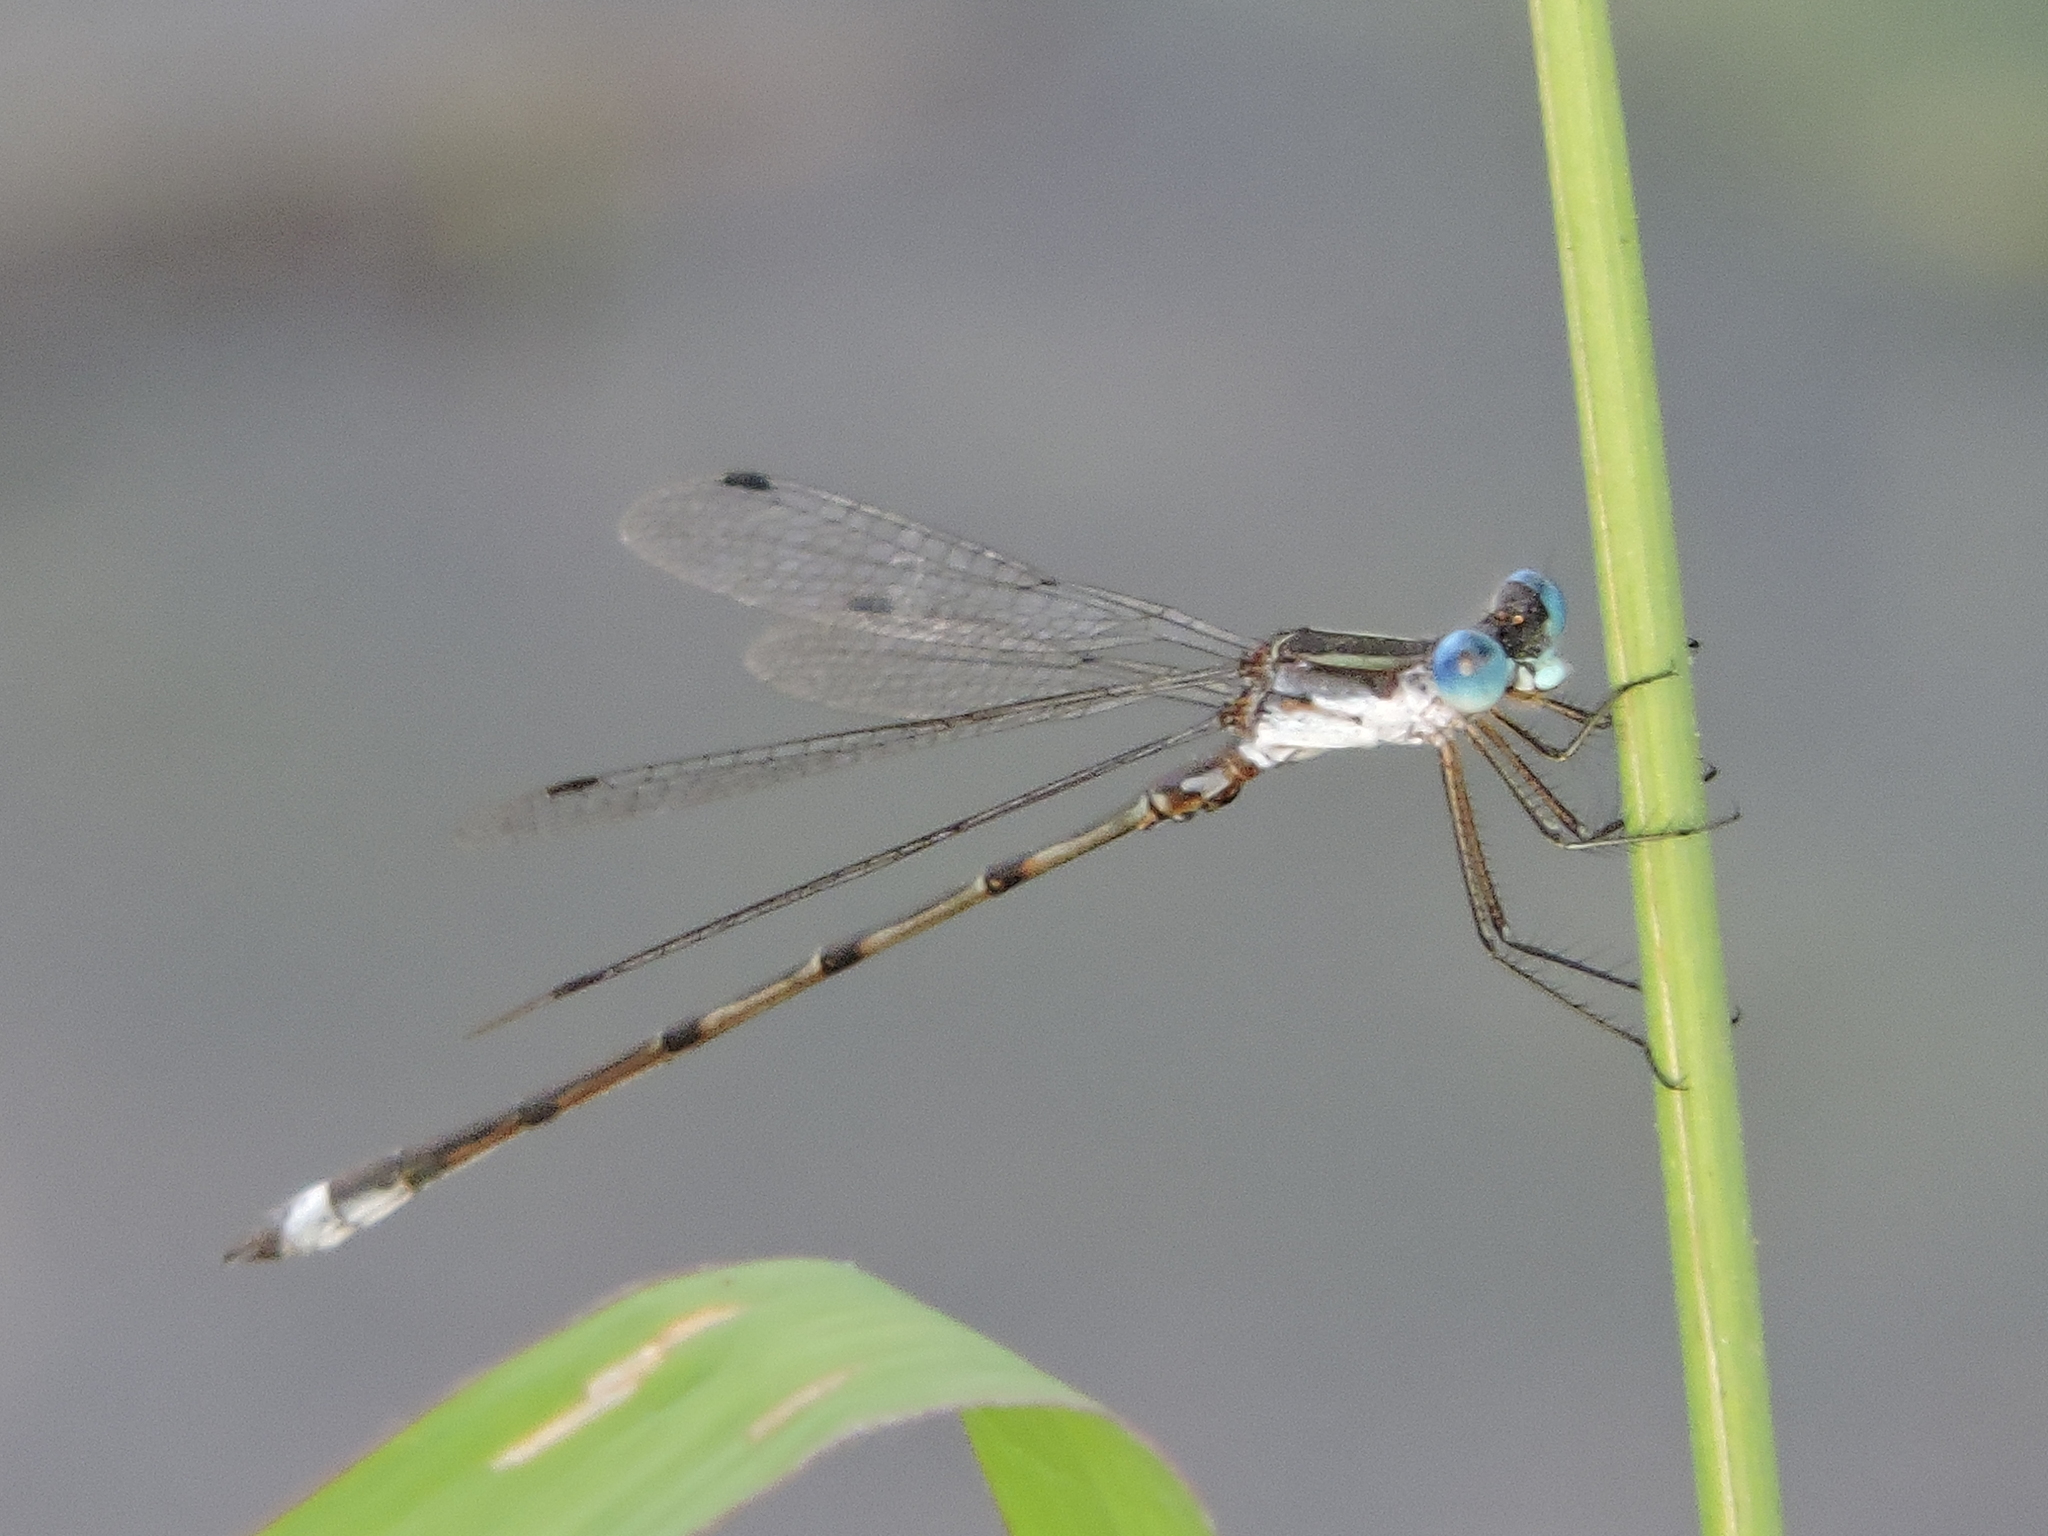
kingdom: Animalia
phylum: Arthropoda
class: Insecta
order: Odonata
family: Lestidae
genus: Lestes
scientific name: Lestes australis
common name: Southern spreadwing
